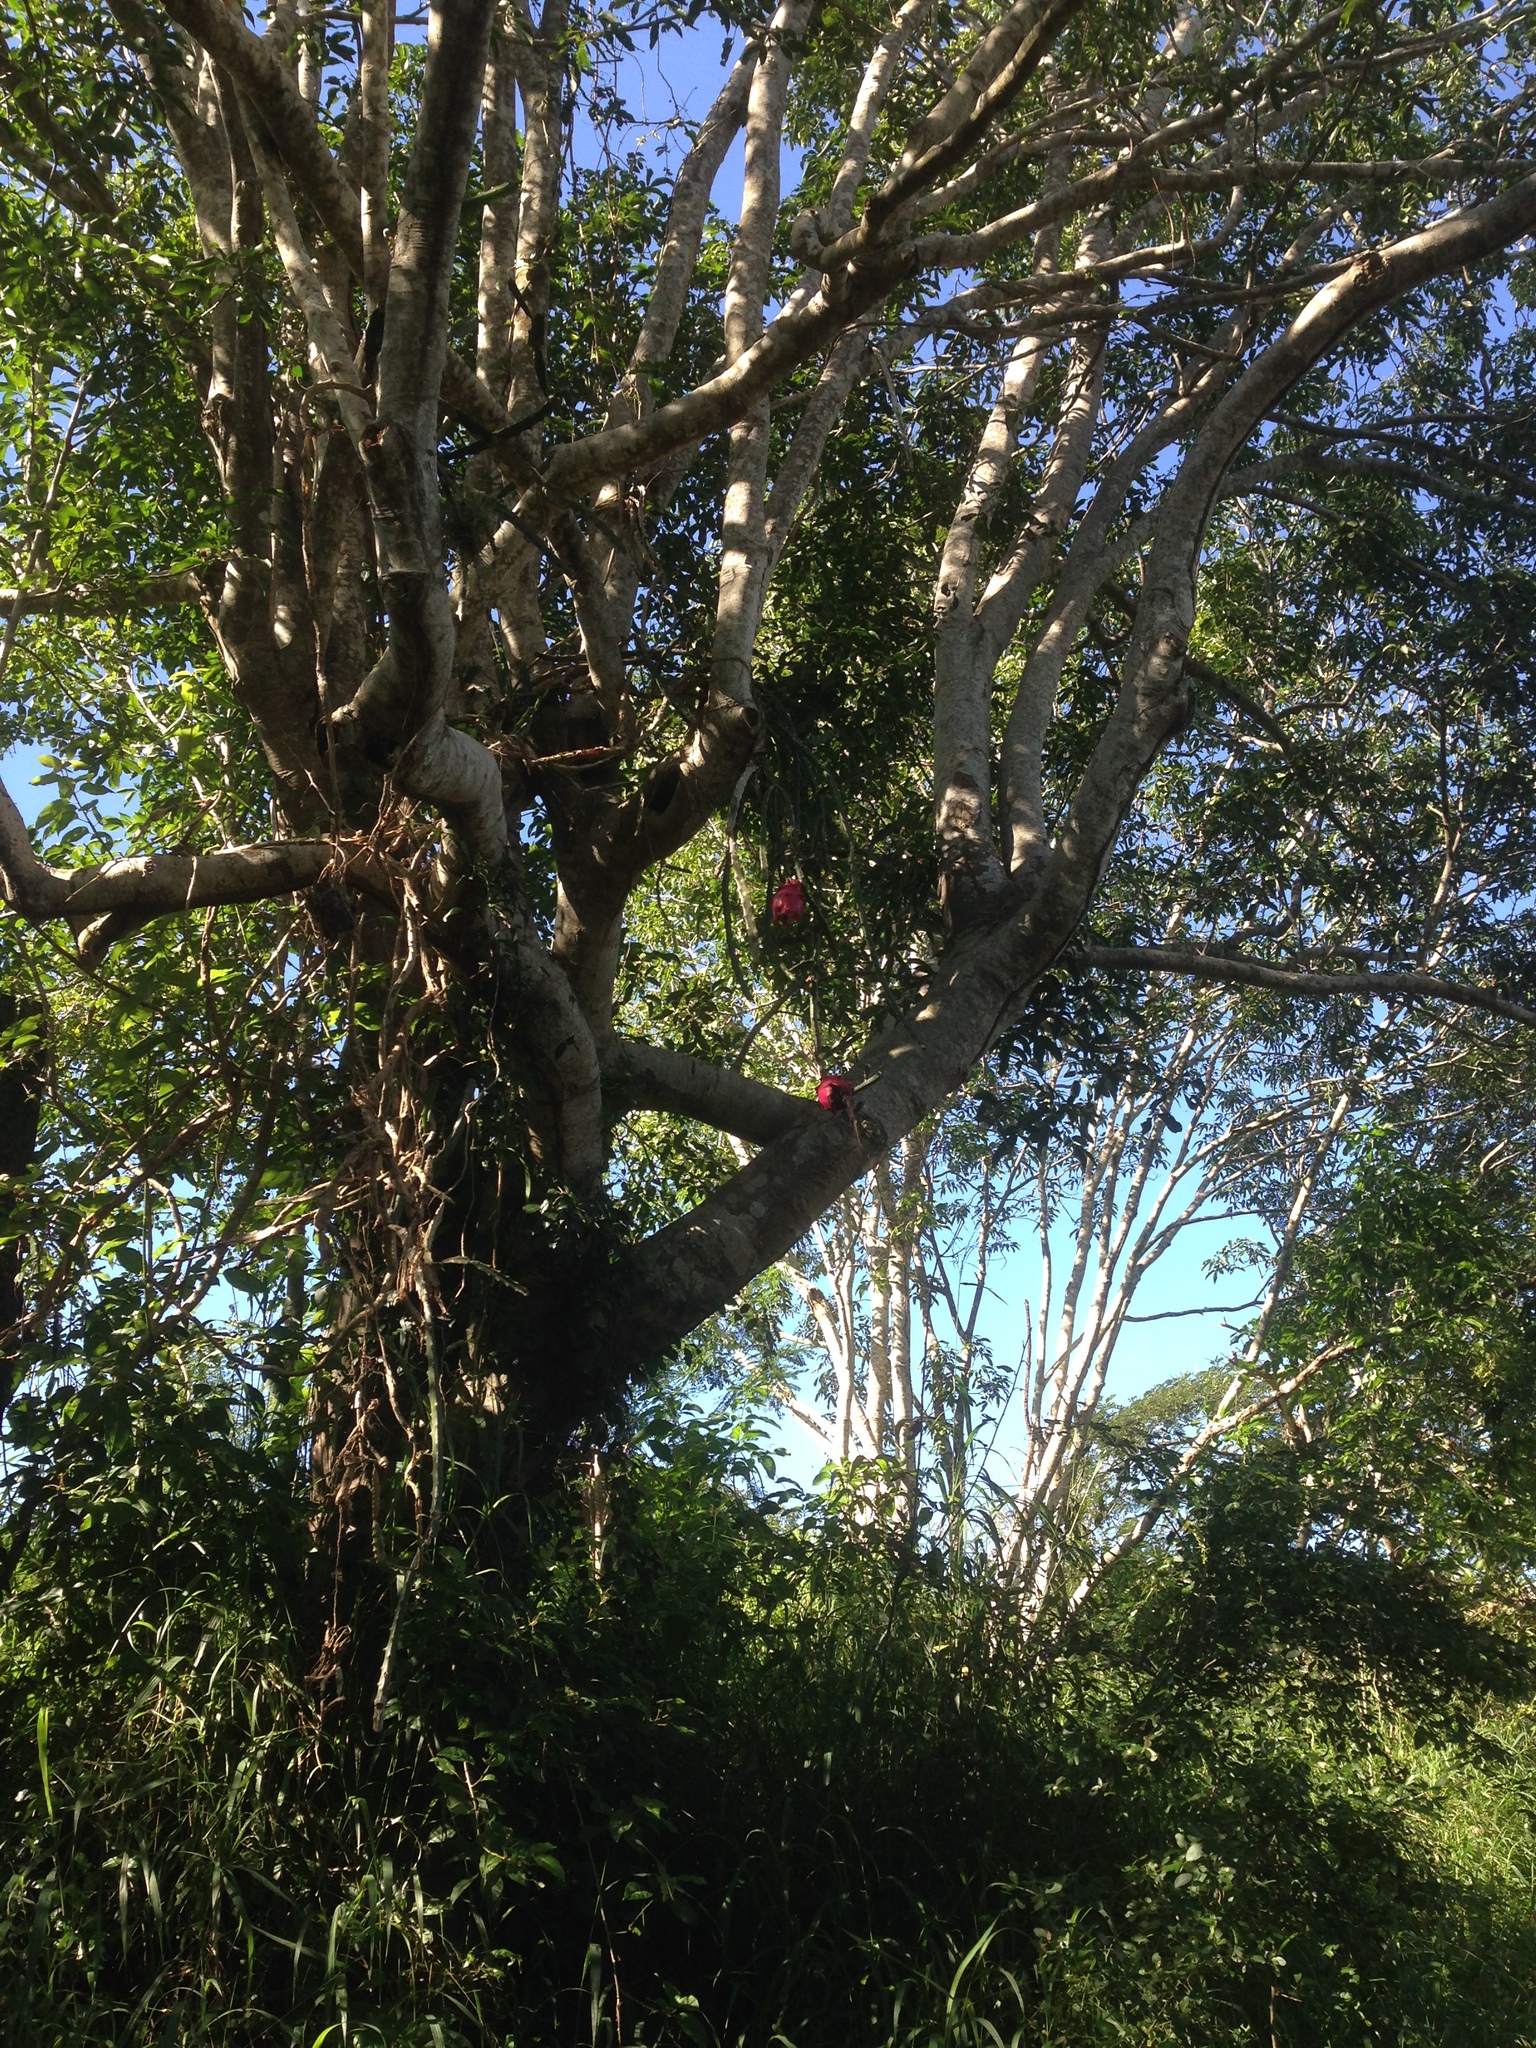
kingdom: Plantae
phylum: Tracheophyta
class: Magnoliopsida
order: Caryophyllales
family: Cactaceae
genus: Selenicereus
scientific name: Selenicereus triangularis
